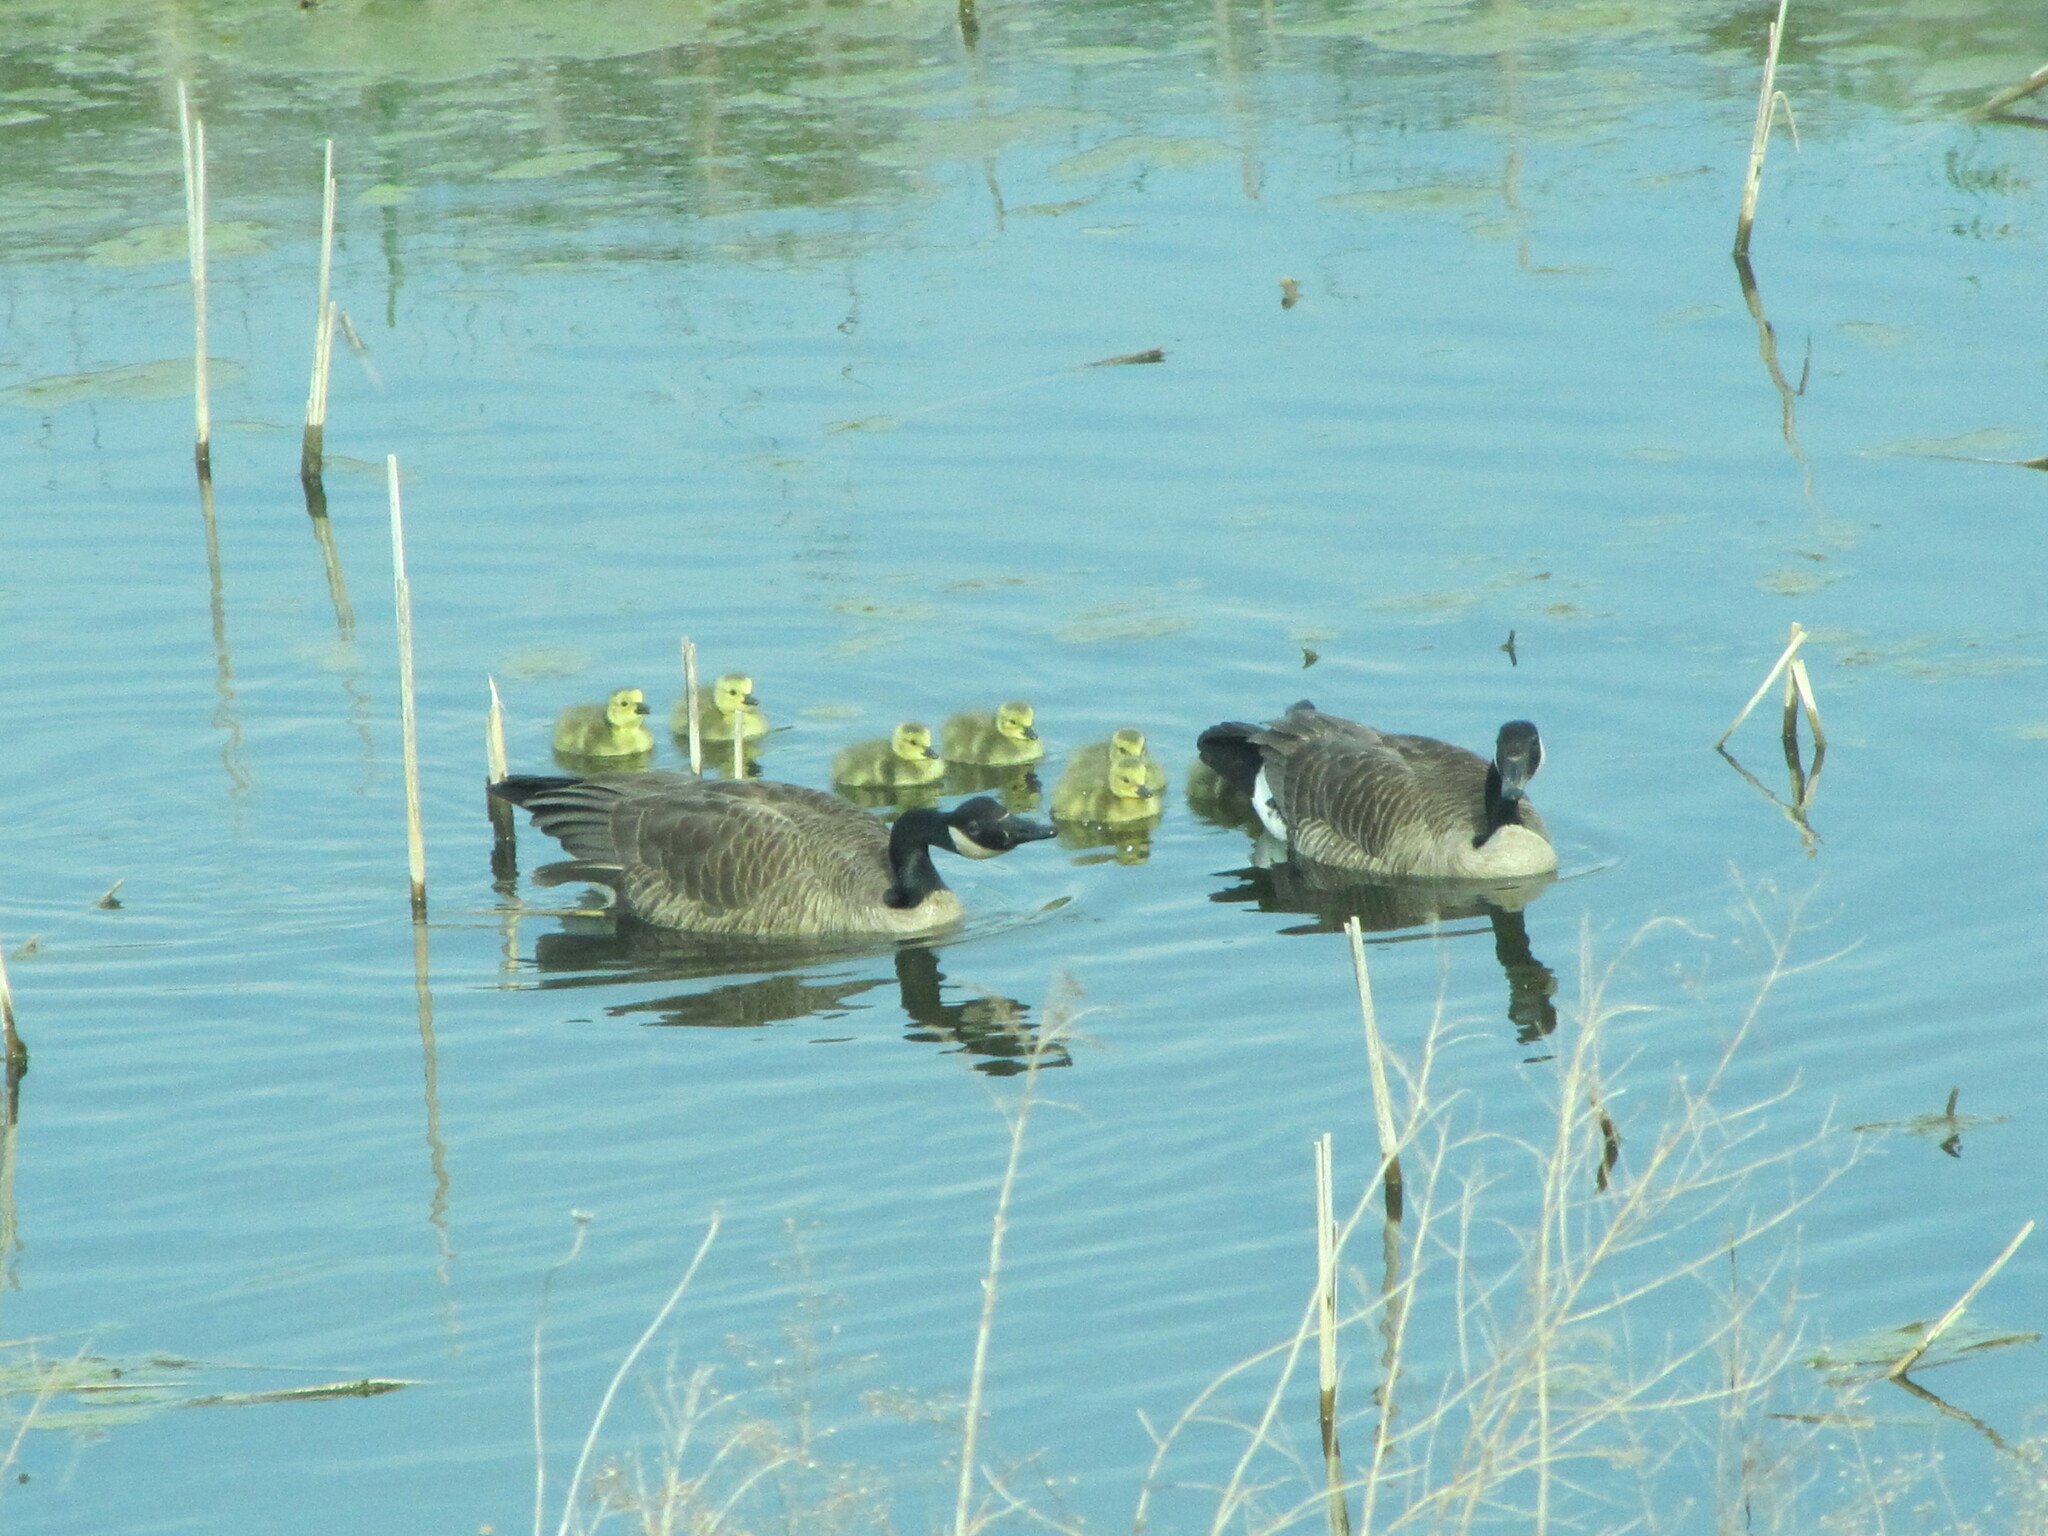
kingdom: Animalia
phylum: Chordata
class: Aves
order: Anseriformes
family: Anatidae
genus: Branta
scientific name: Branta canadensis
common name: Canada goose
